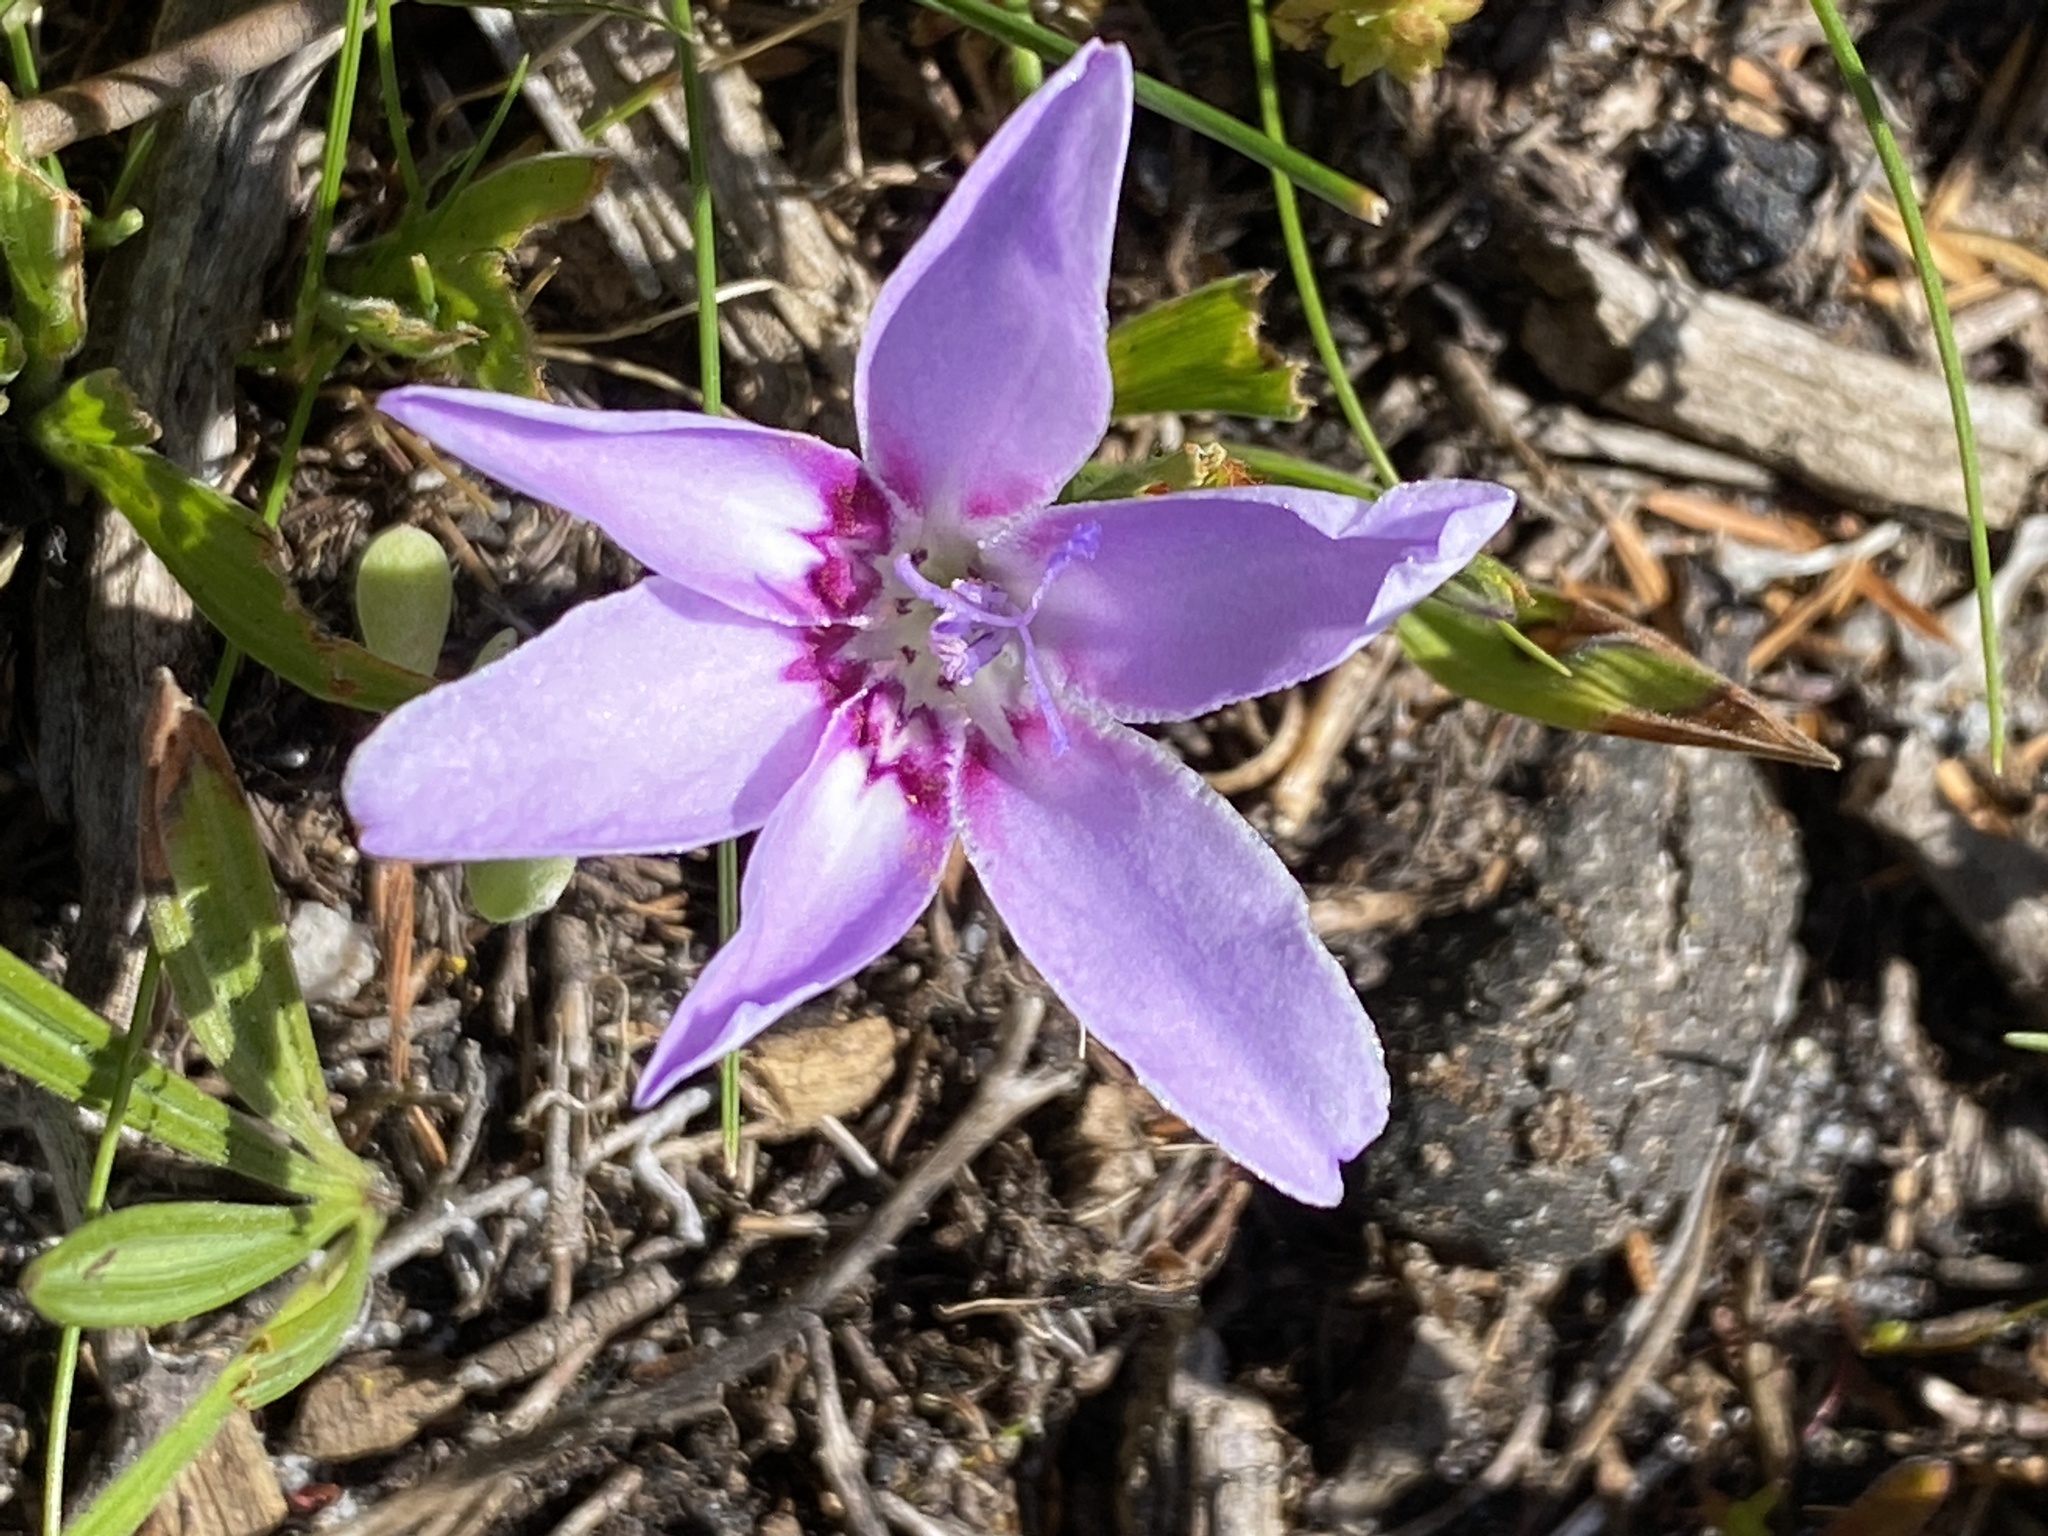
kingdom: Plantae
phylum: Tracheophyta
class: Liliopsida
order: Asparagales
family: Iridaceae
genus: Babiana
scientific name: Babiana ambigua
